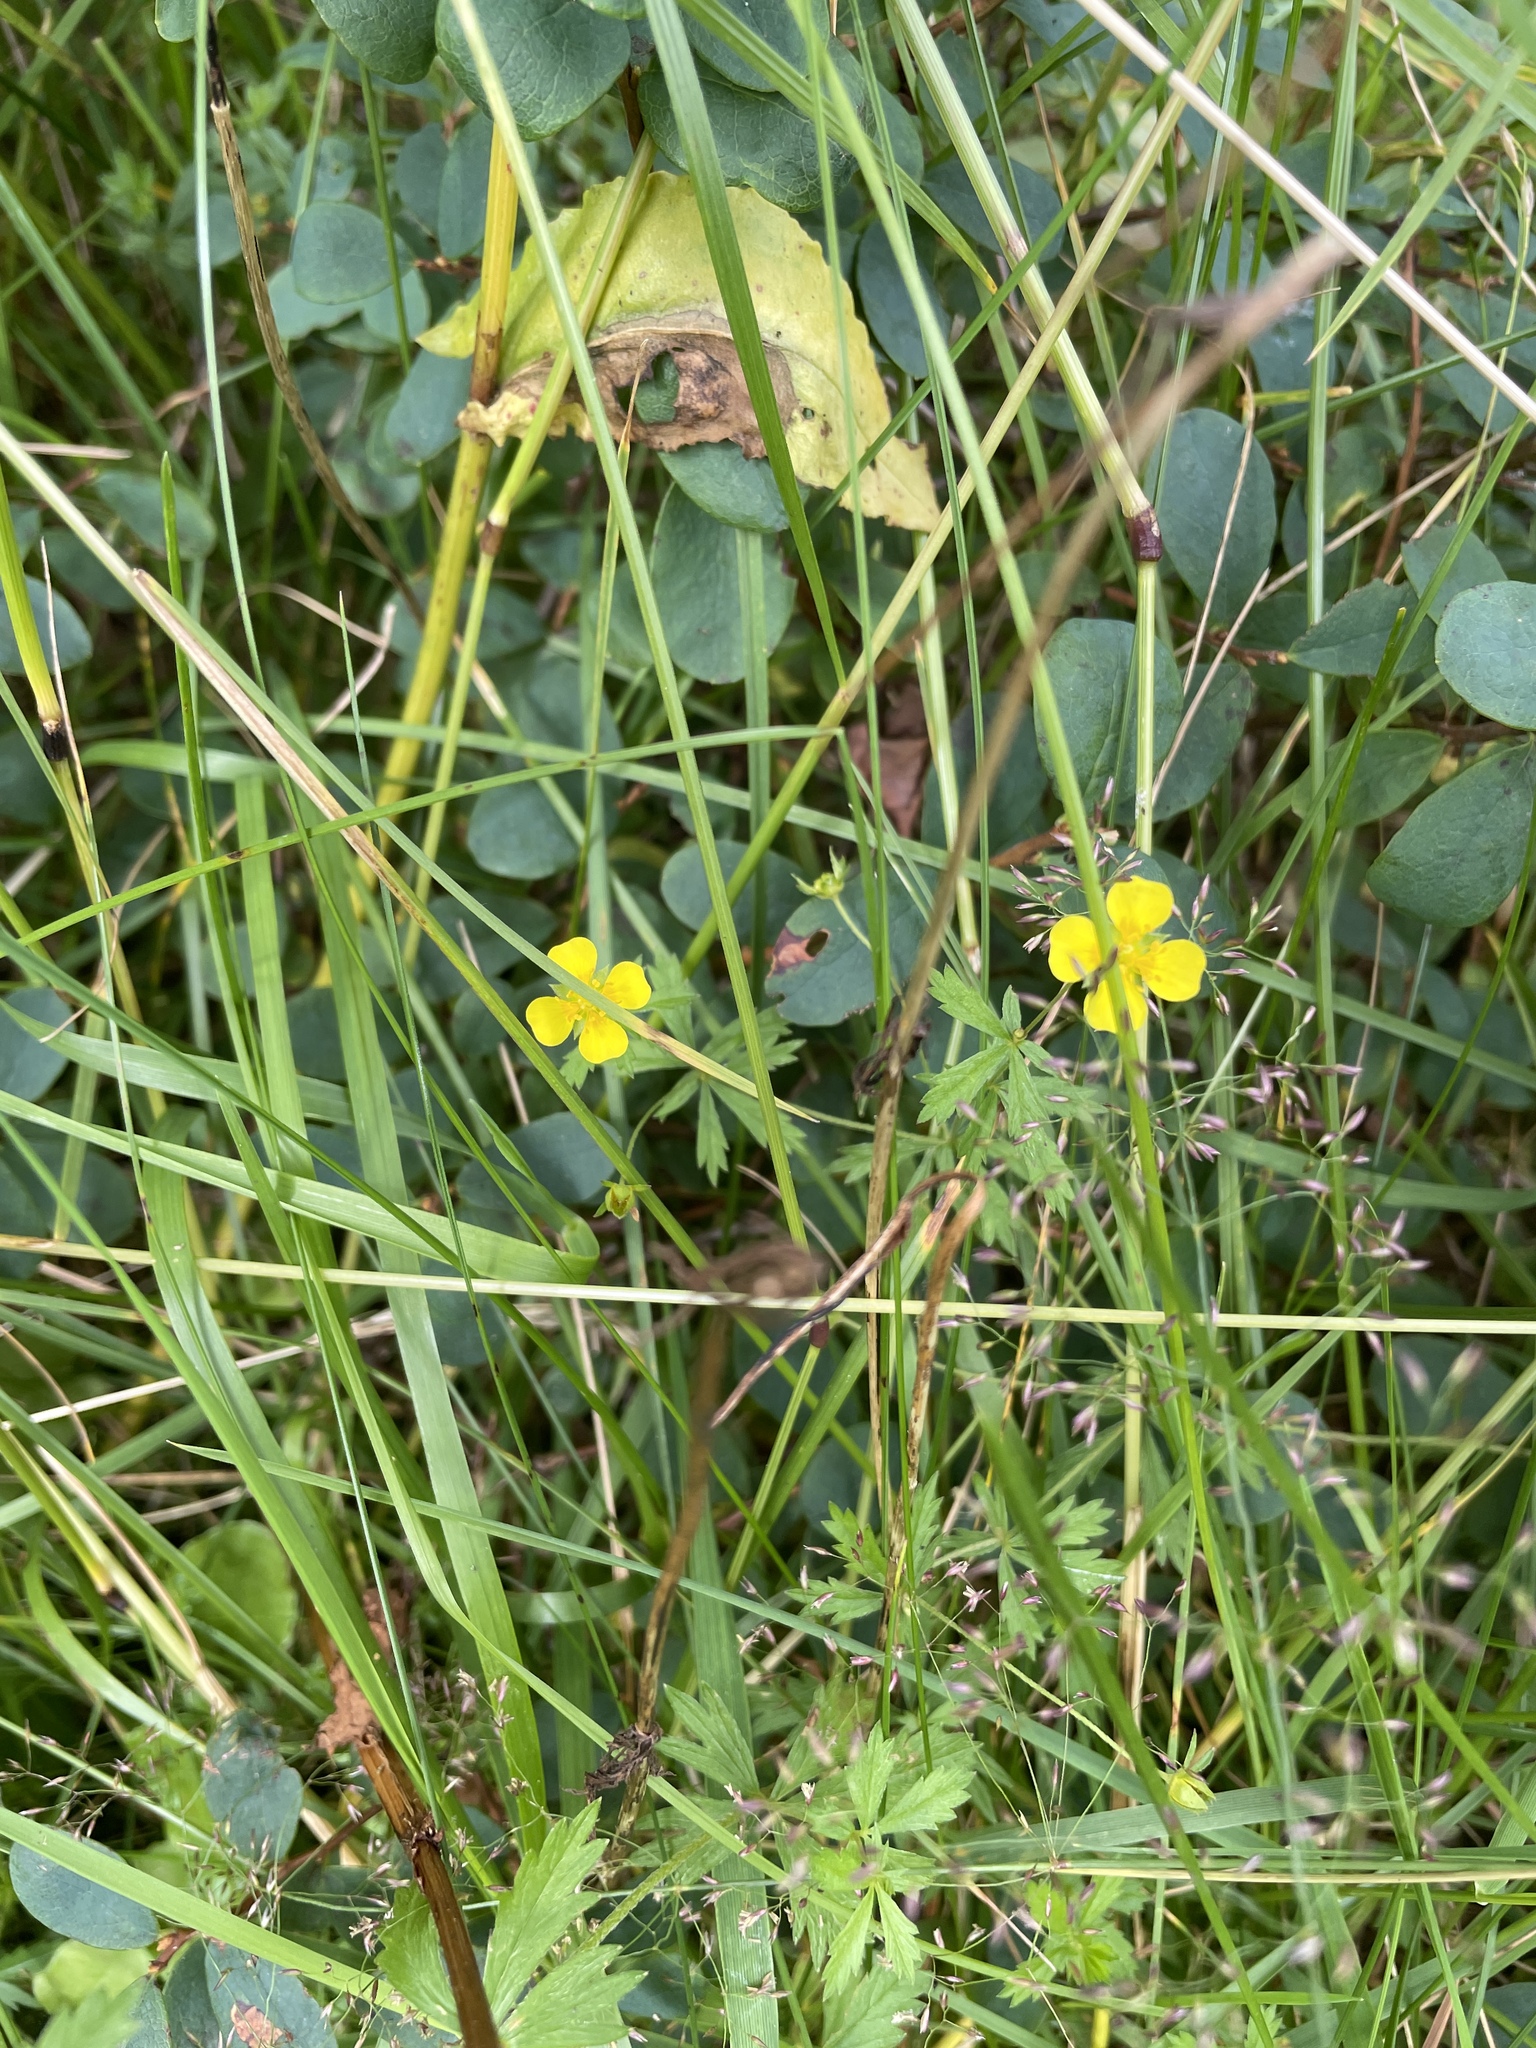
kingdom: Plantae
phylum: Tracheophyta
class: Magnoliopsida
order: Rosales
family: Rosaceae
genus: Potentilla
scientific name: Potentilla erecta
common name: Tormentil
